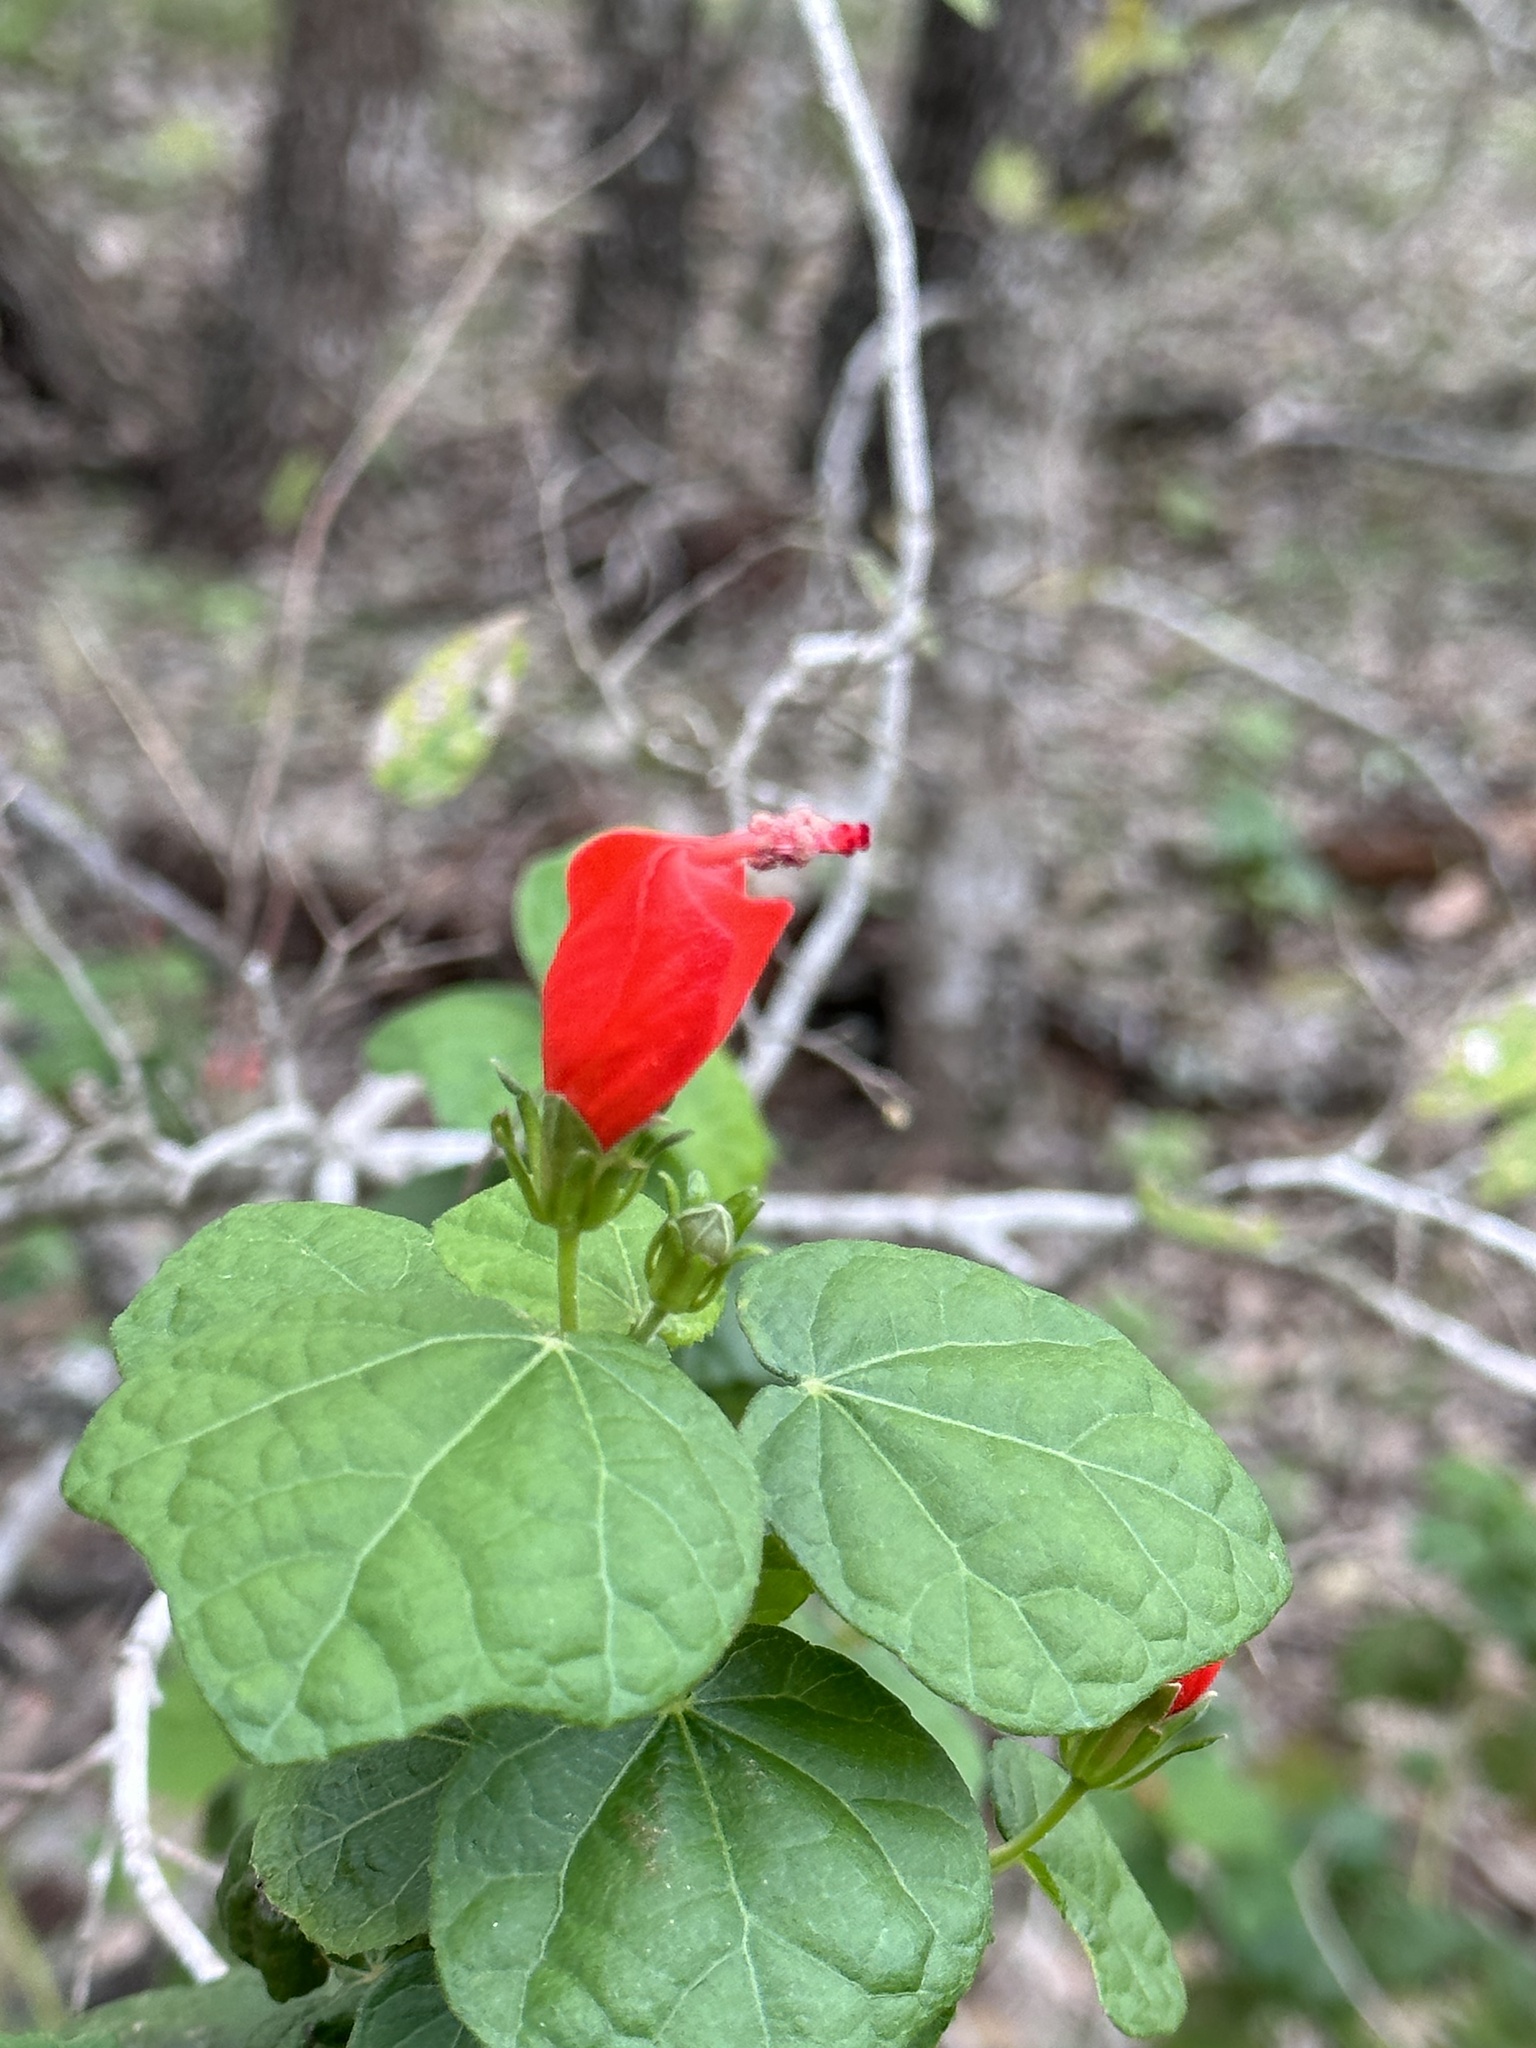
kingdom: Plantae
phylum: Tracheophyta
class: Magnoliopsida
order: Malvales
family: Malvaceae
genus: Malvaviscus
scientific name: Malvaviscus arboreus
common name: Wax mallow
